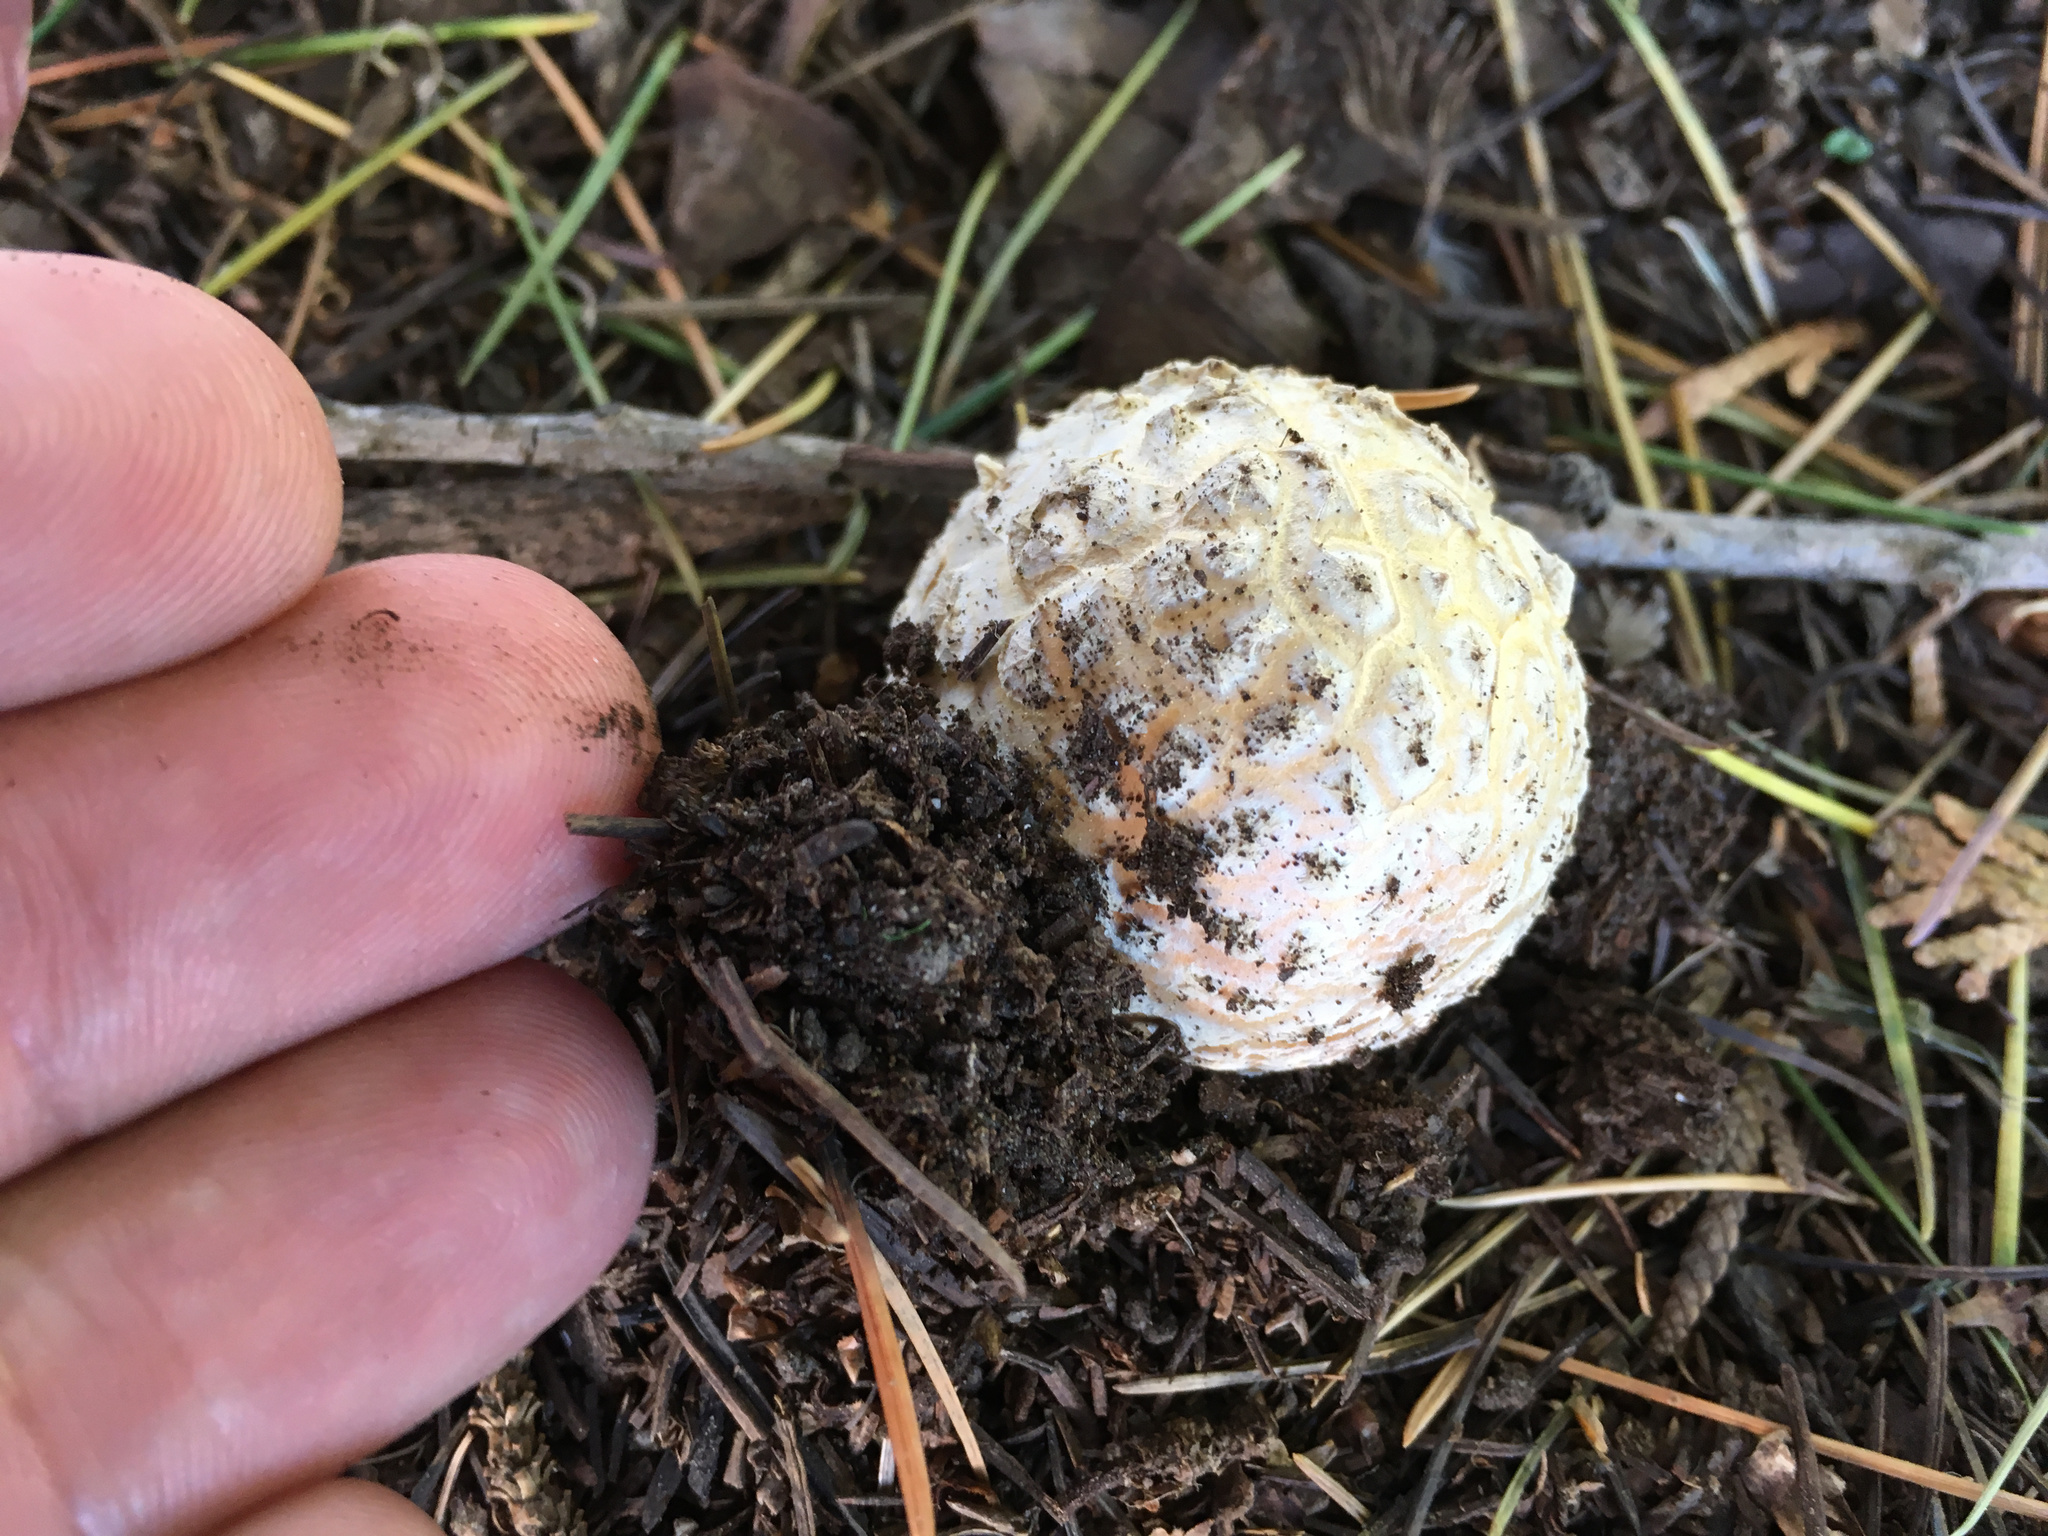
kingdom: Fungi
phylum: Basidiomycota
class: Agaricomycetes
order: Agaricales
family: Amanitaceae
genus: Amanita
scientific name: Amanita muscaria
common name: Fly agaric
